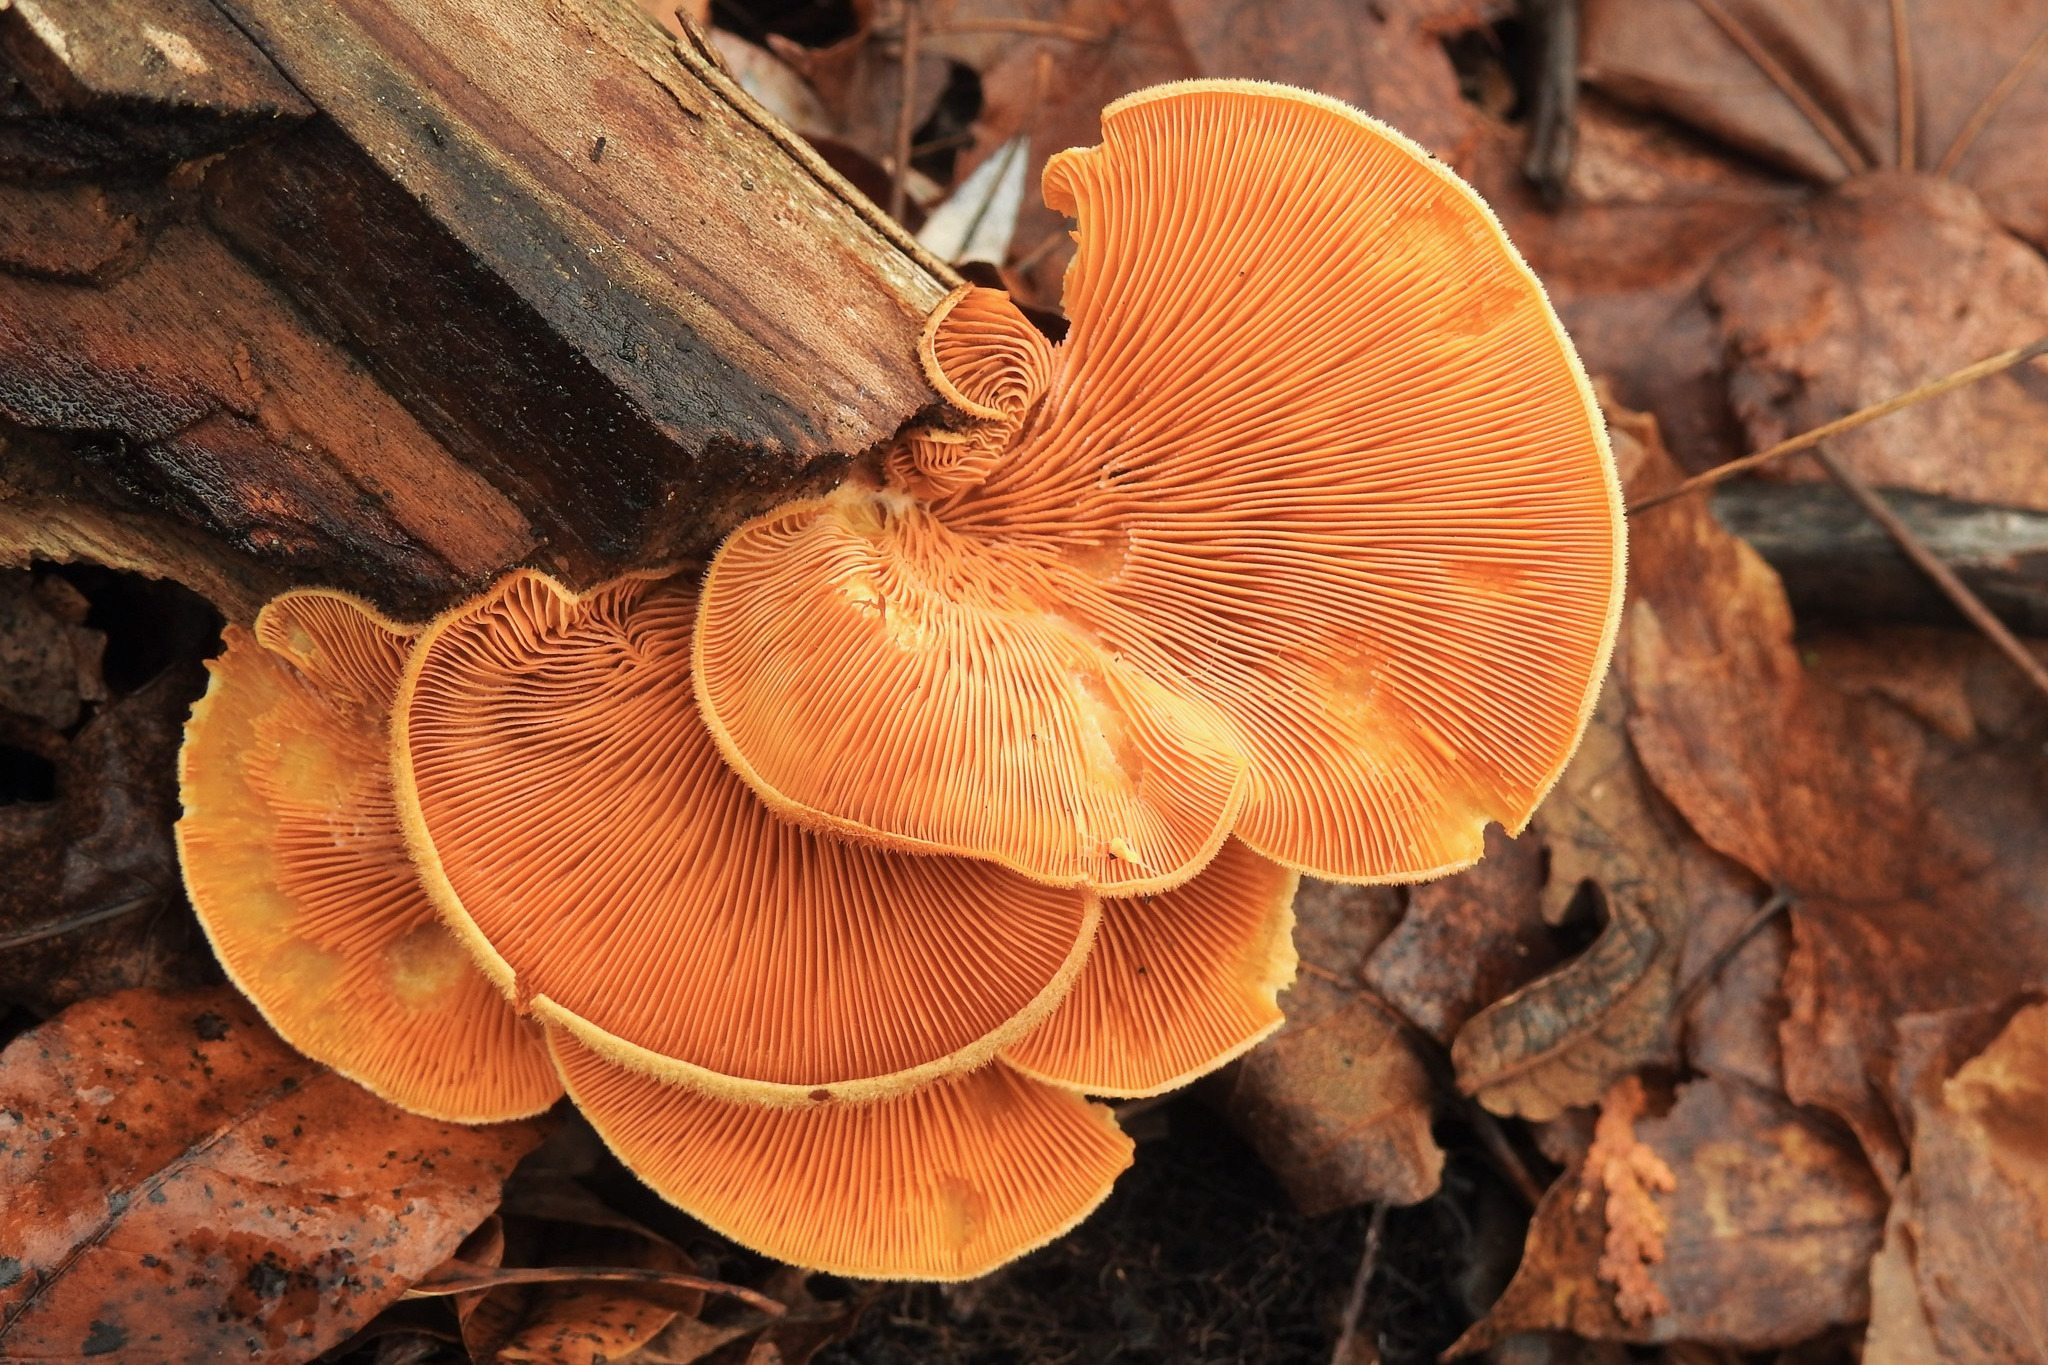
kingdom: Fungi
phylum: Basidiomycota
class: Agaricomycetes
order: Agaricales
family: Phyllotopsidaceae
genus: Phyllotopsis
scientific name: Phyllotopsis nidulans
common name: Orange mock oyster
